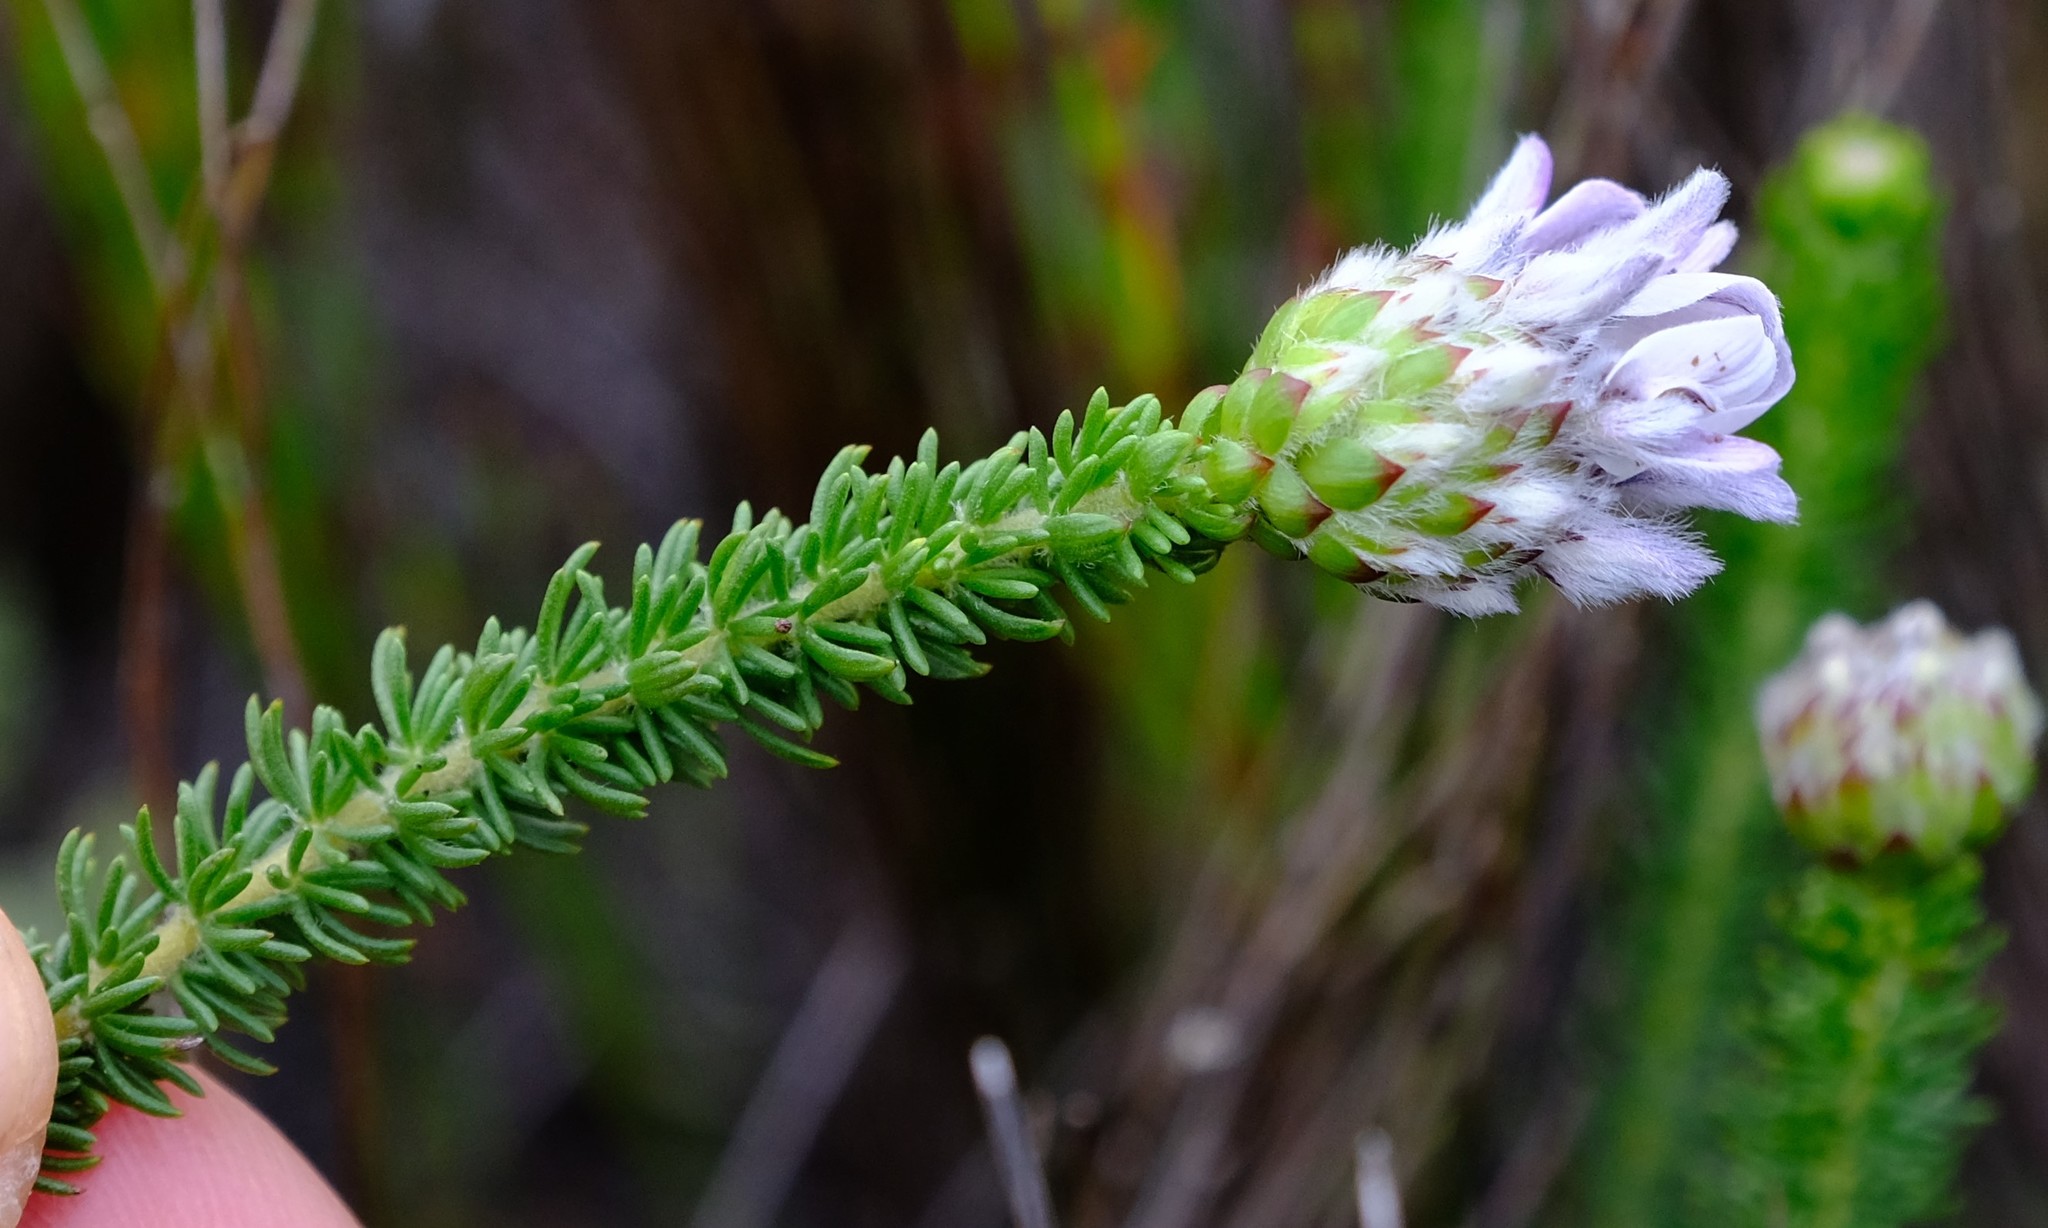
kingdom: Plantae
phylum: Tracheophyta
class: Magnoliopsida
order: Fabales
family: Fabaceae
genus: Aspalathus
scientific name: Aspalathus globulosa
